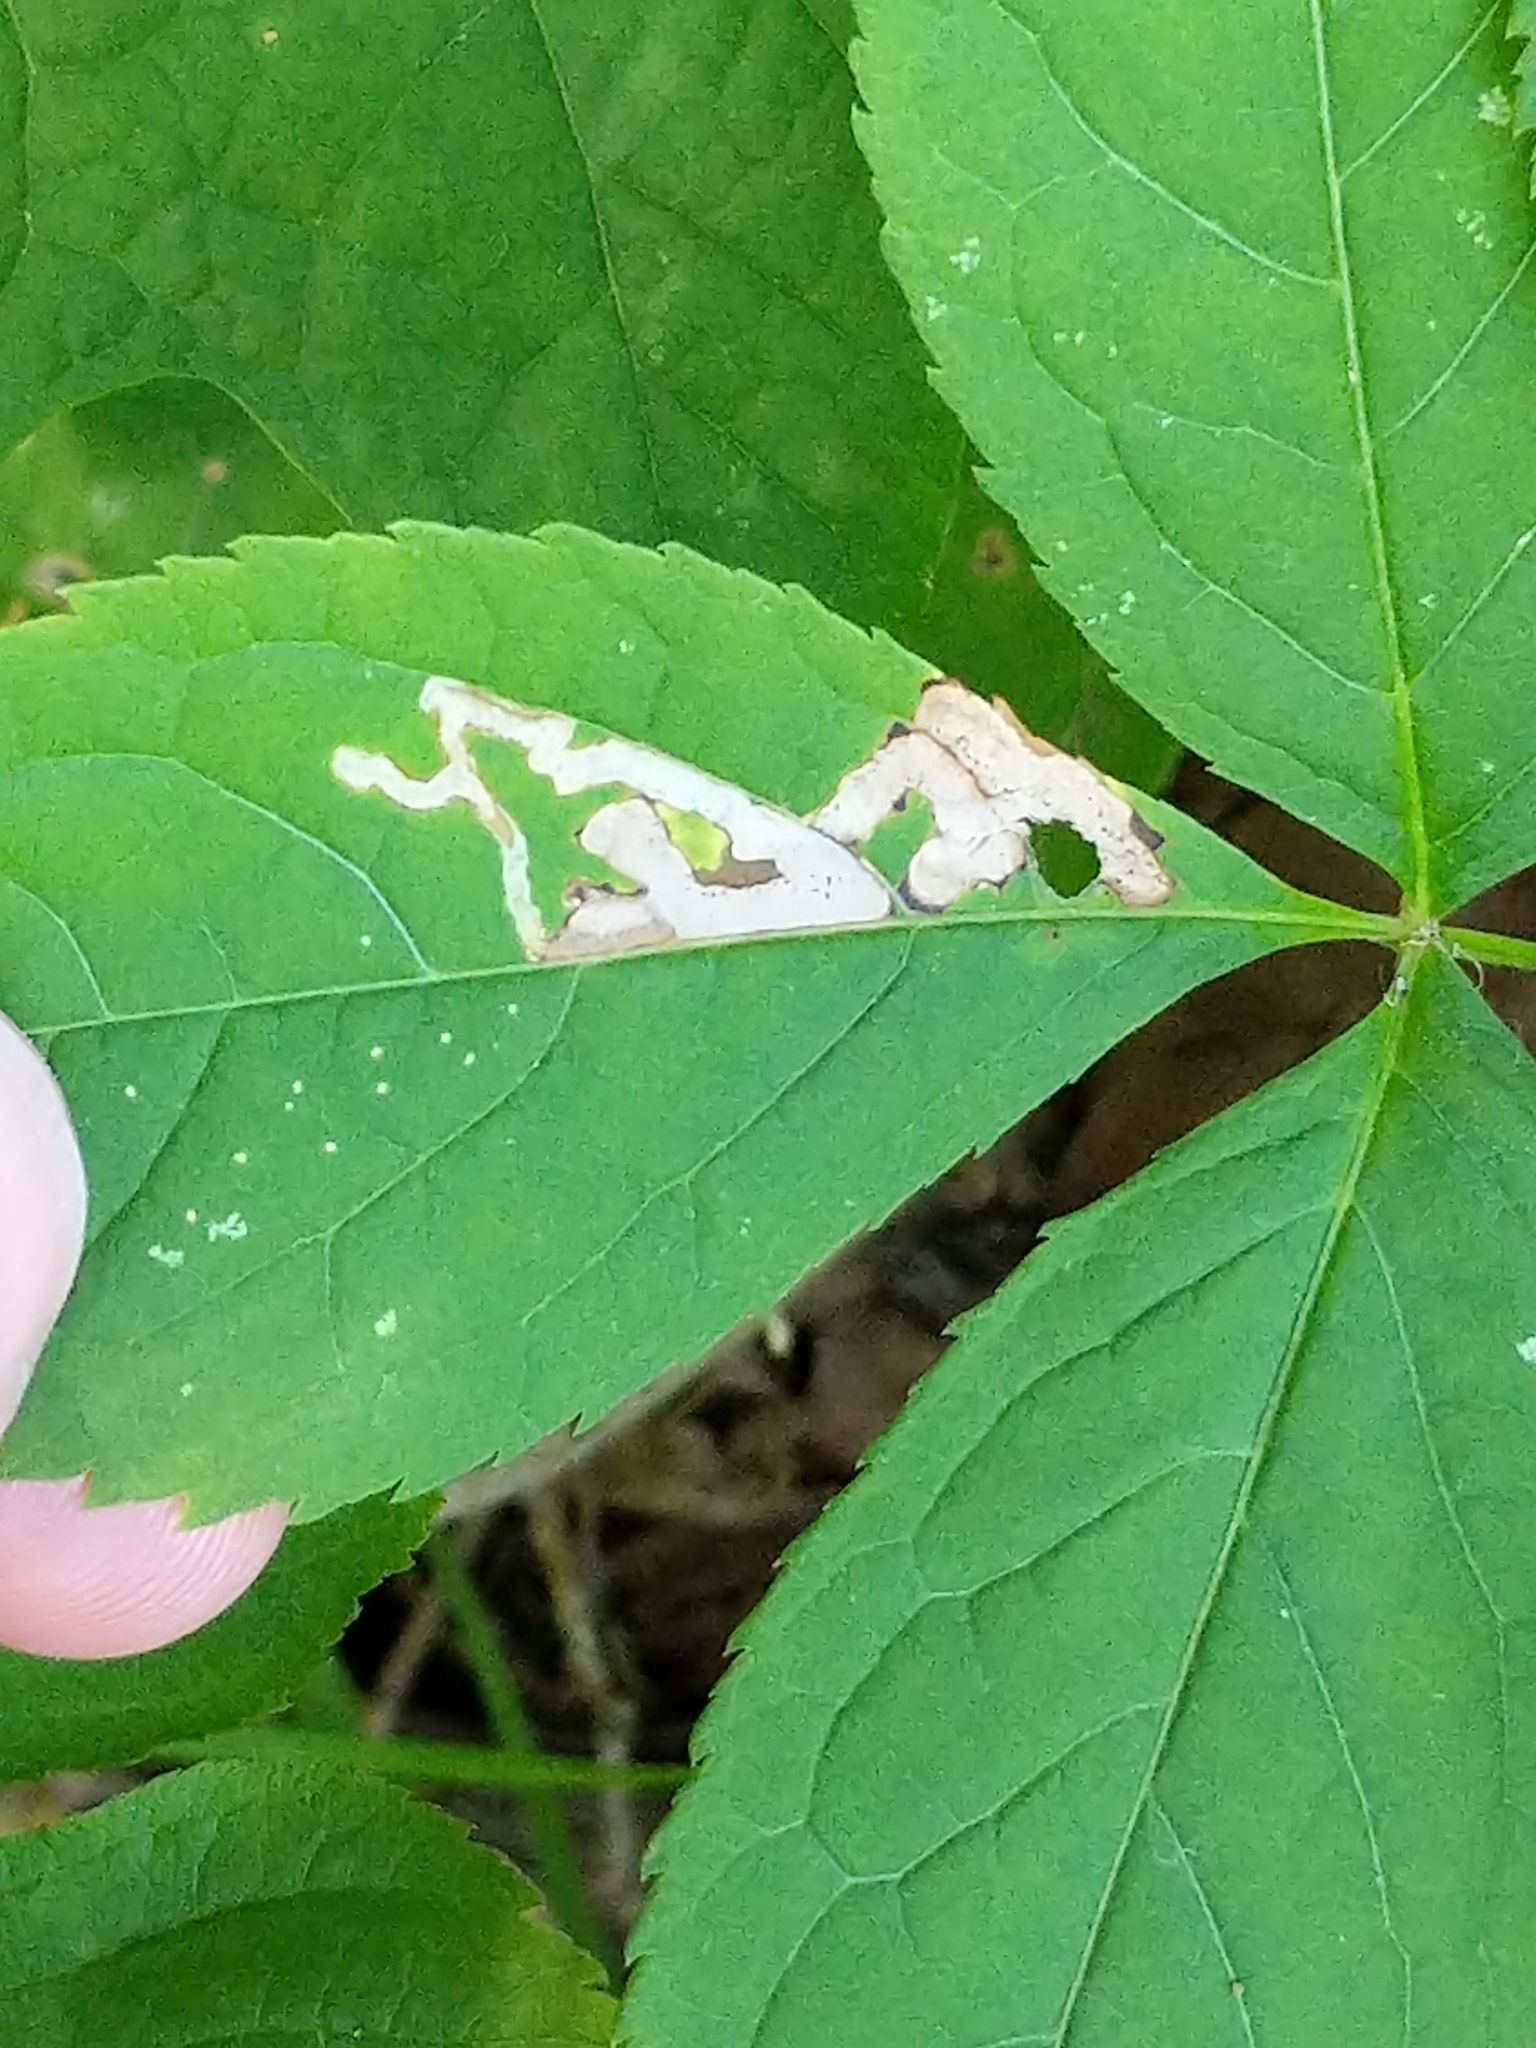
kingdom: Animalia
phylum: Arthropoda
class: Insecta
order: Diptera
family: Agromyzidae
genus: Phytomyza
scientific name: Phytomyza aralivora
